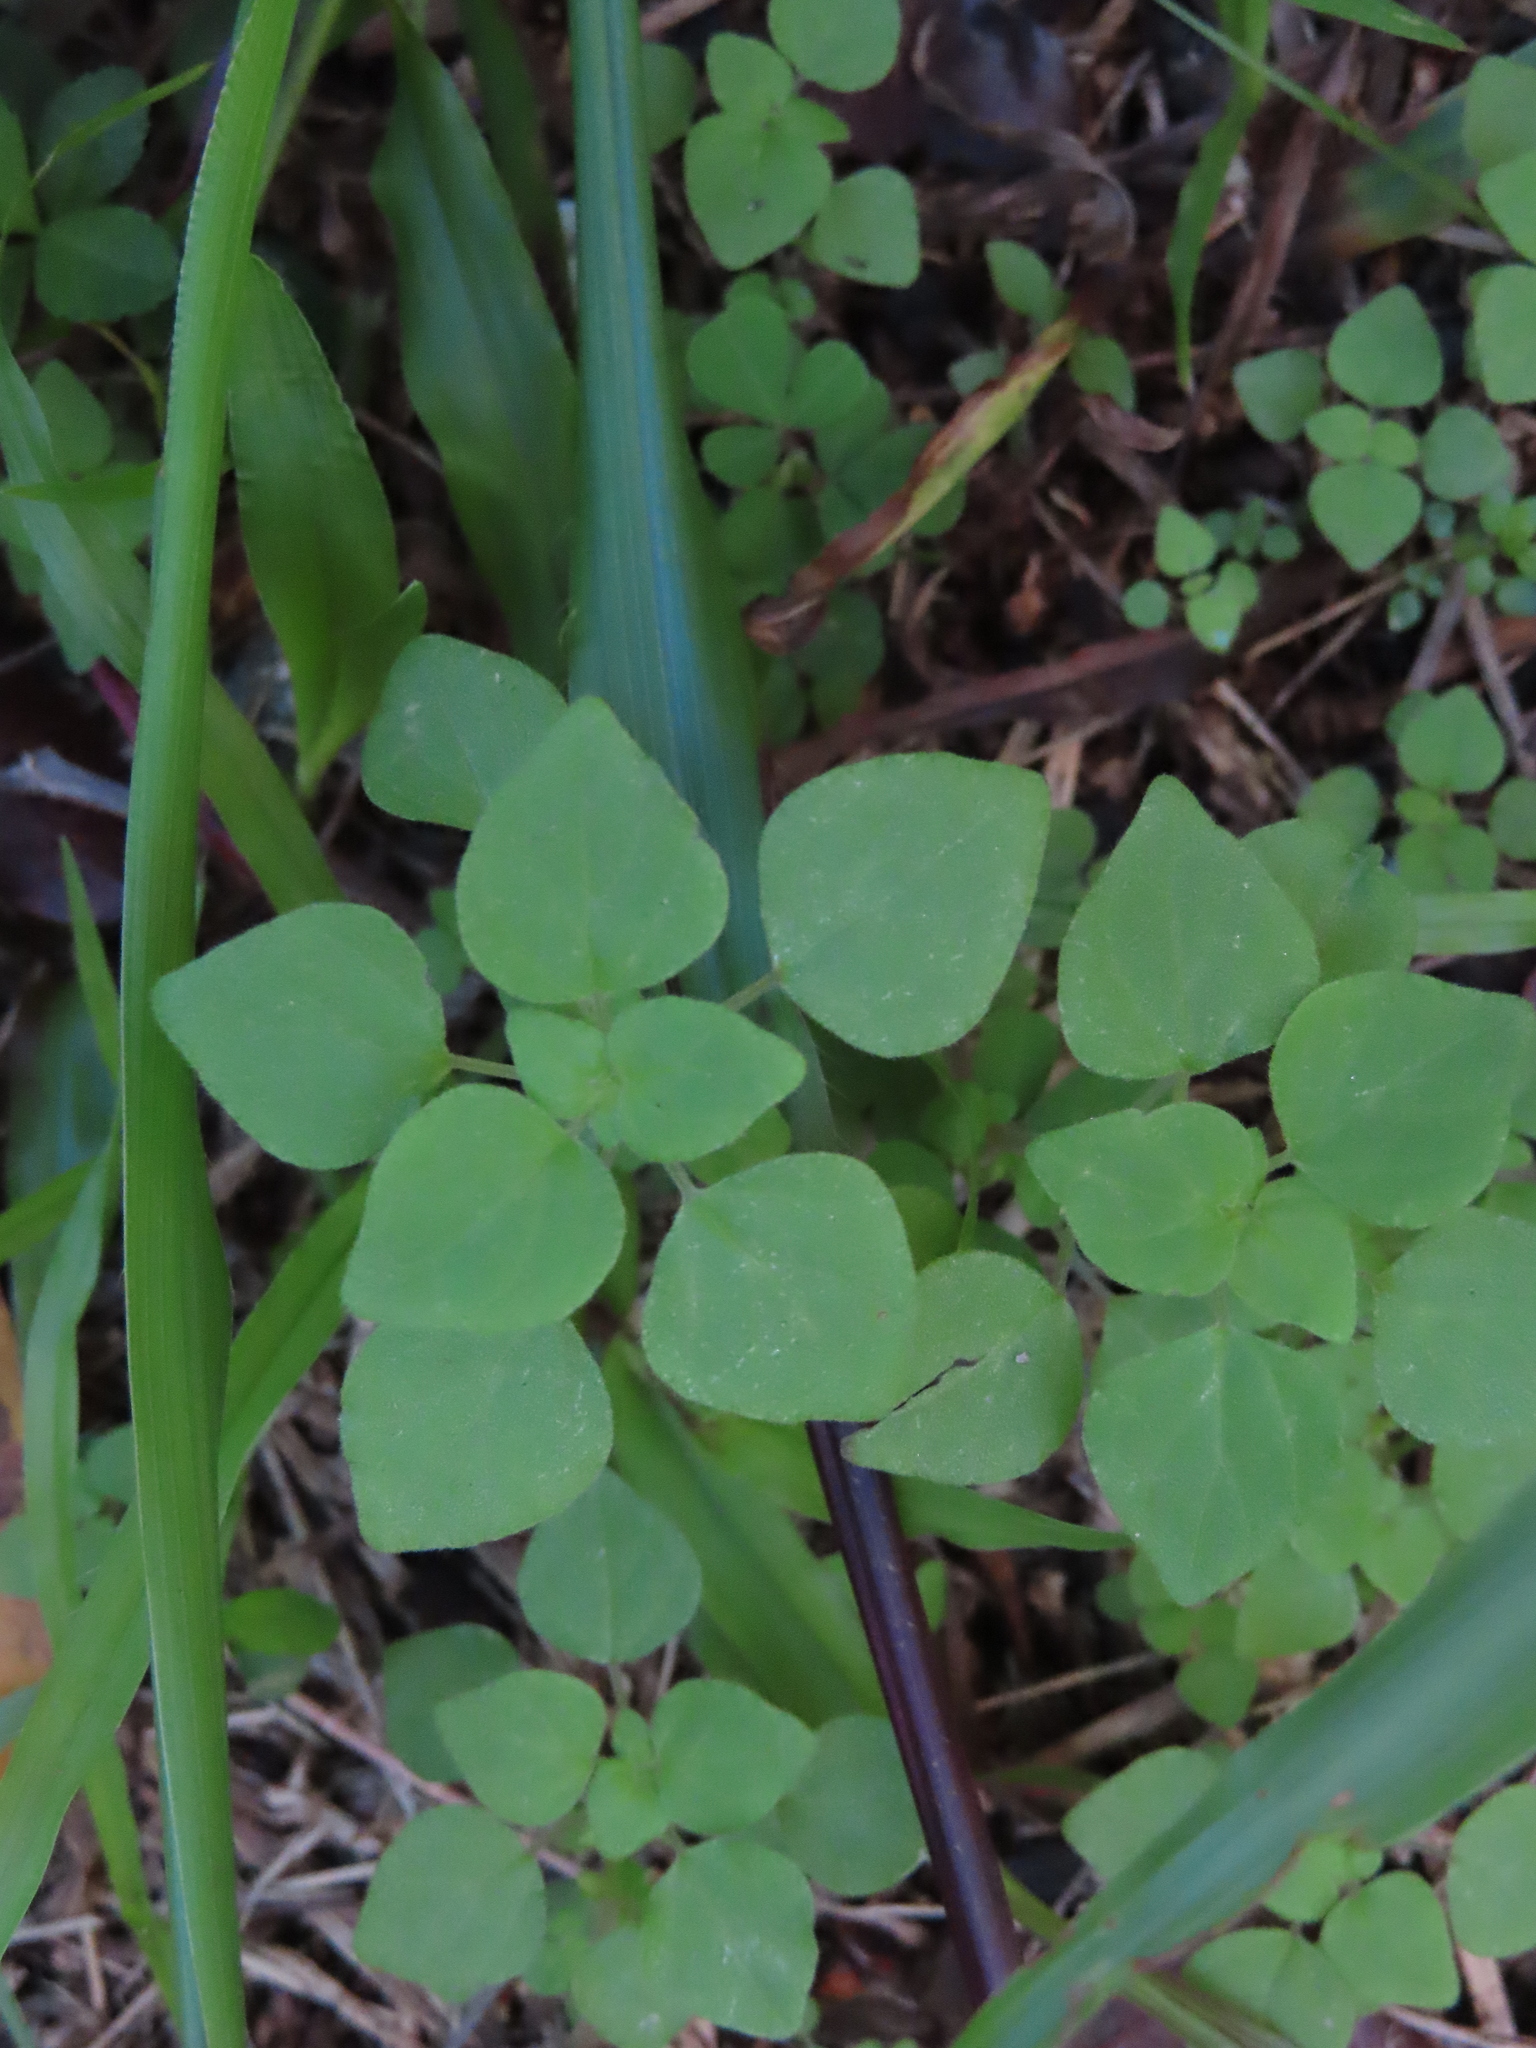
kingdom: Plantae
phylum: Tracheophyta
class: Magnoliopsida
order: Rosales
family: Urticaceae
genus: Parietaria
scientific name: Parietaria floridana
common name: Florida pellitory
